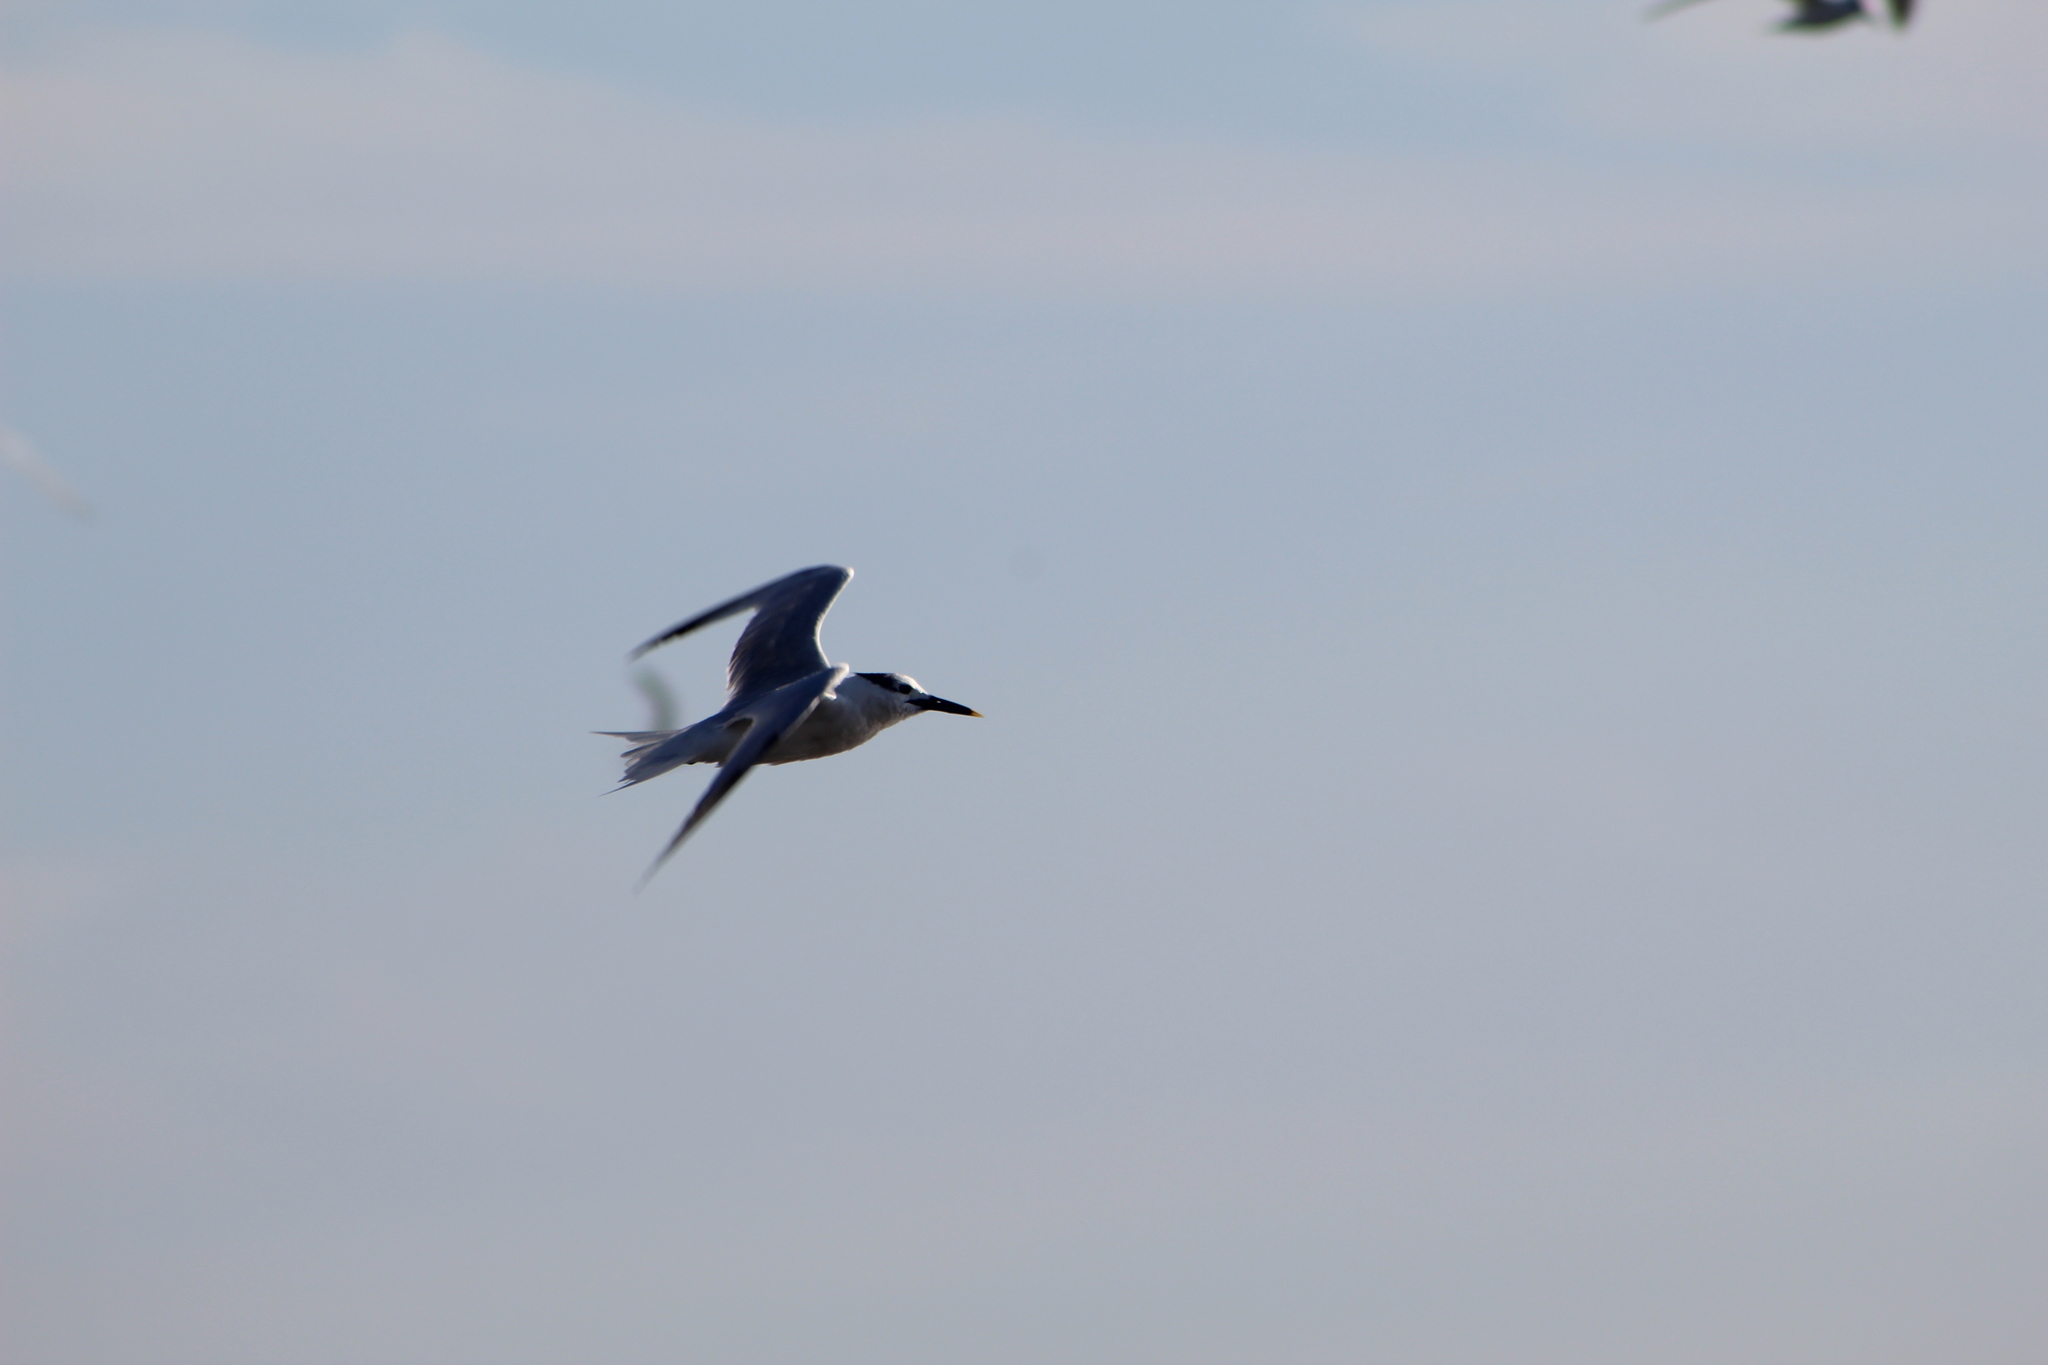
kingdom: Animalia
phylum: Chordata
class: Aves
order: Charadriiformes
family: Laridae
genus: Thalasseus
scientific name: Thalasseus sandvicensis
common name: Sandwich tern
